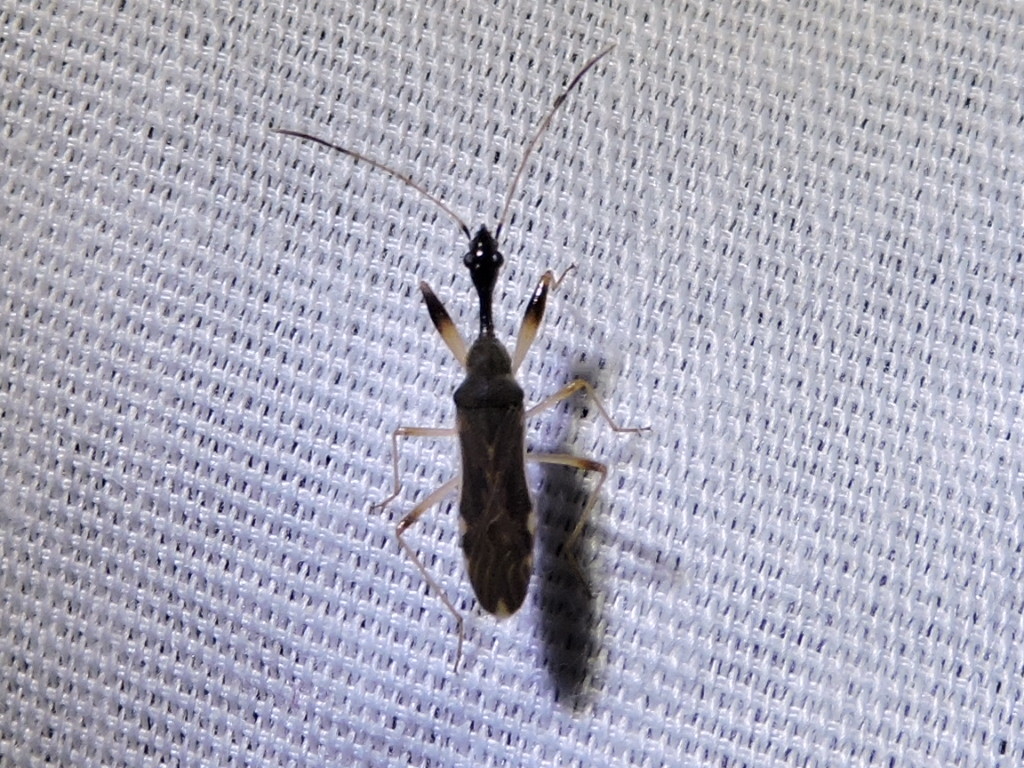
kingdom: Animalia
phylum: Arthropoda
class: Insecta
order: Hemiptera
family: Rhyparochromidae
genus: Myodocha
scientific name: Myodocha serripes
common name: Long-necked seed bug
